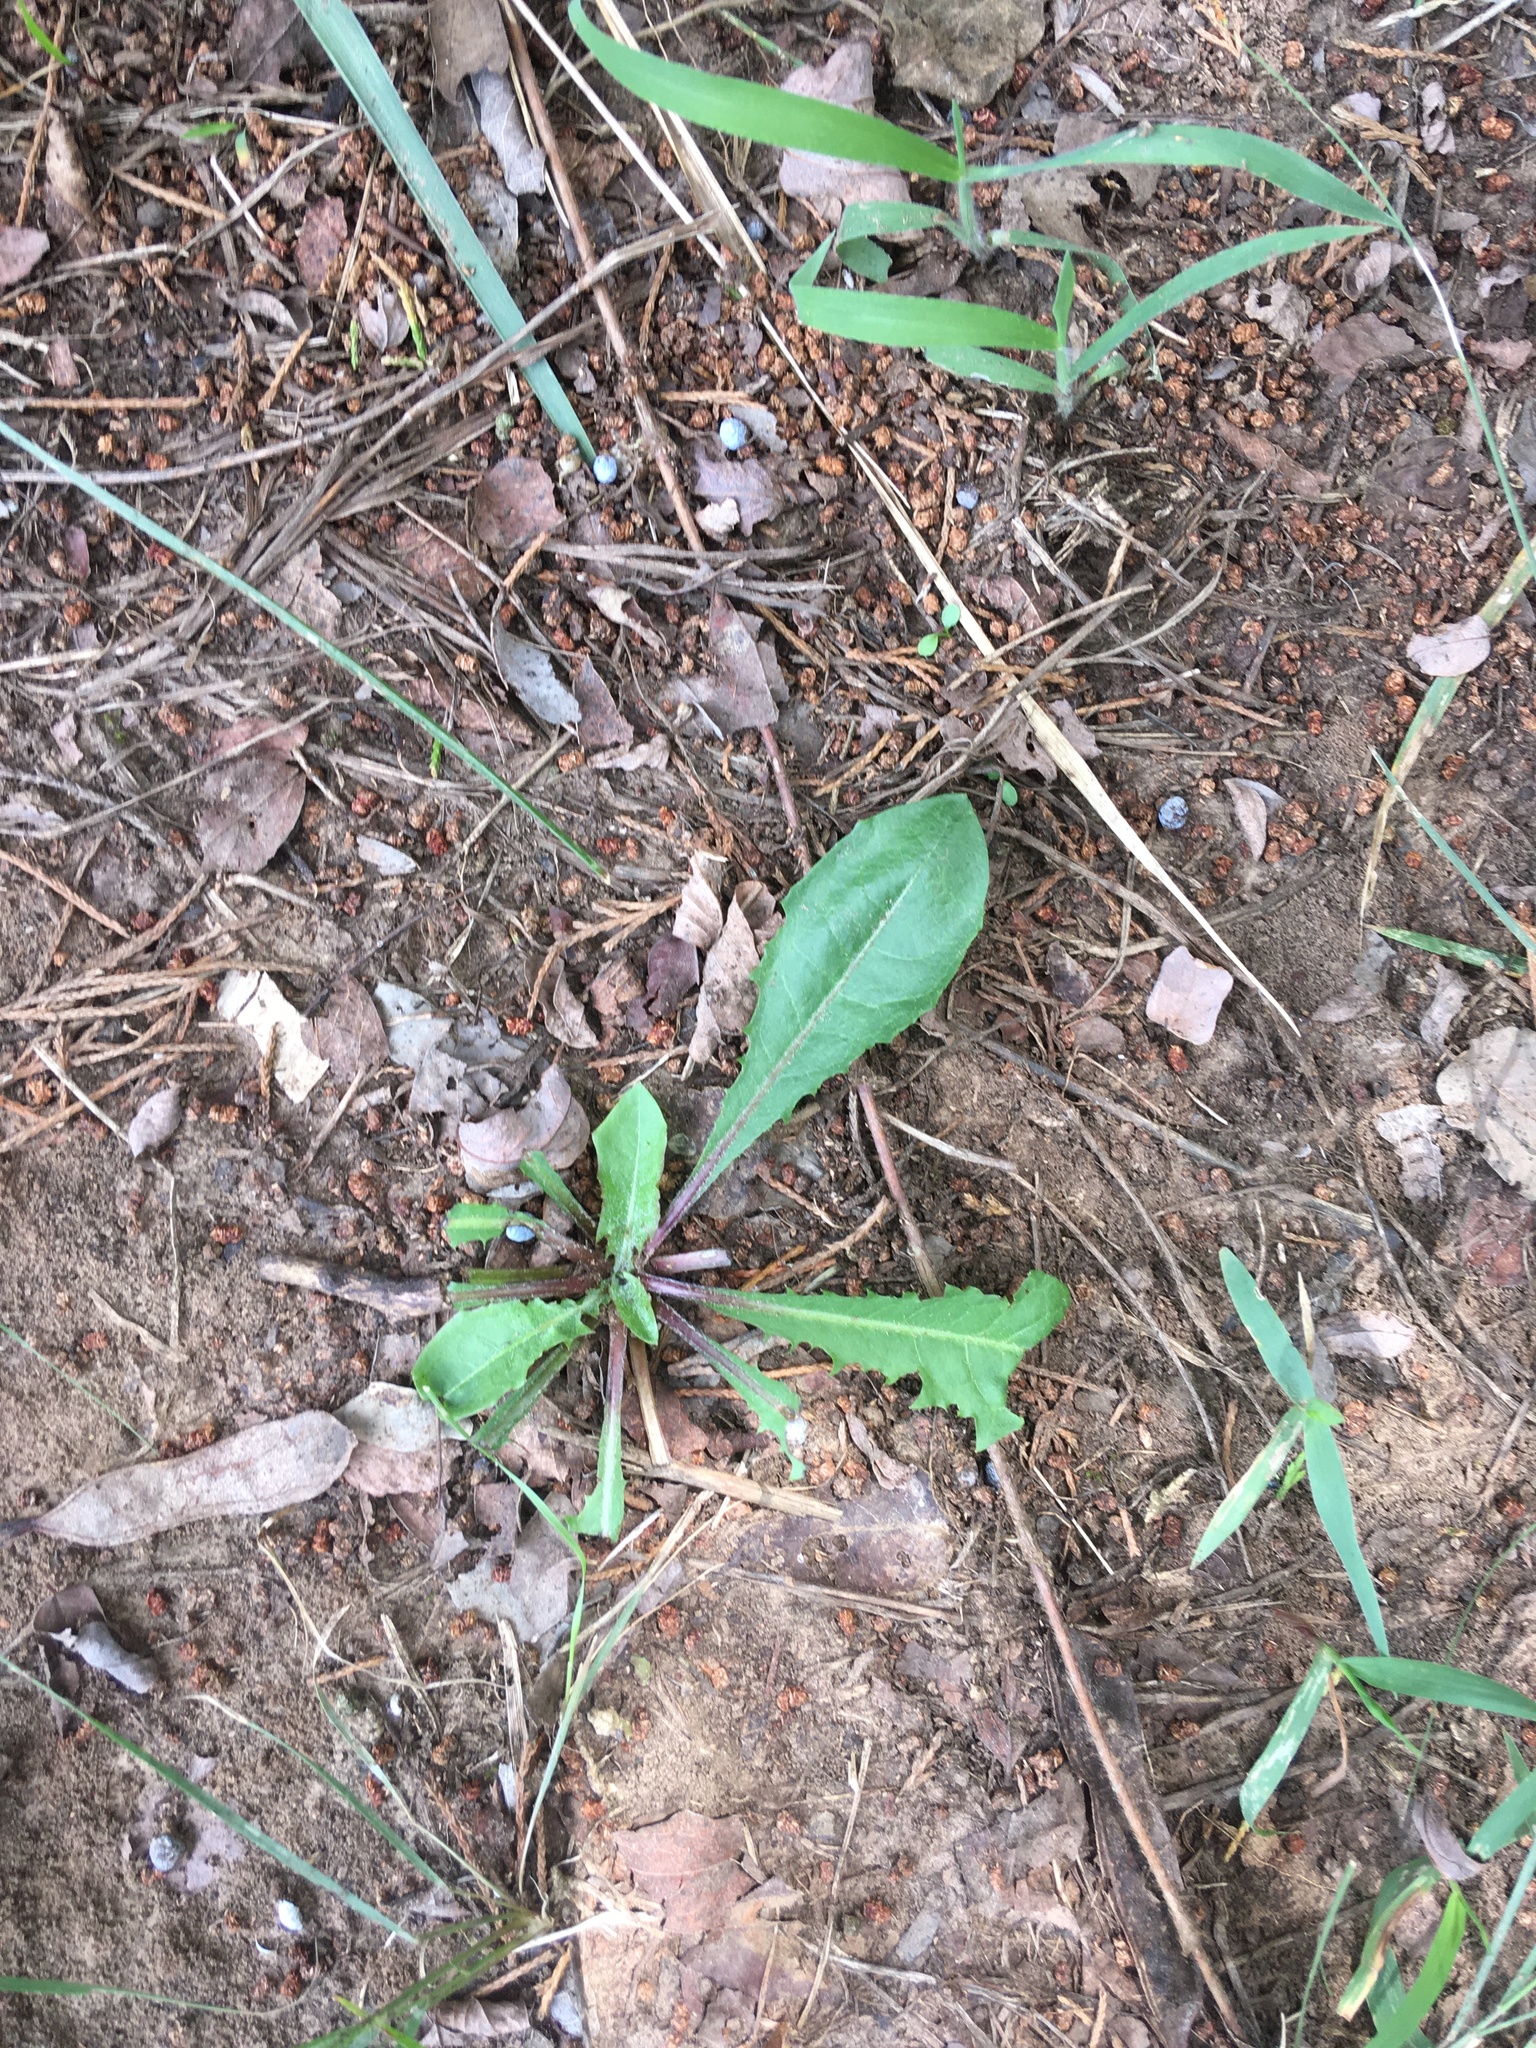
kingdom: Plantae
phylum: Tracheophyta
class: Magnoliopsida
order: Asterales
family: Asteraceae
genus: Taraxacum
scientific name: Taraxacum officinale
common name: Common dandelion
